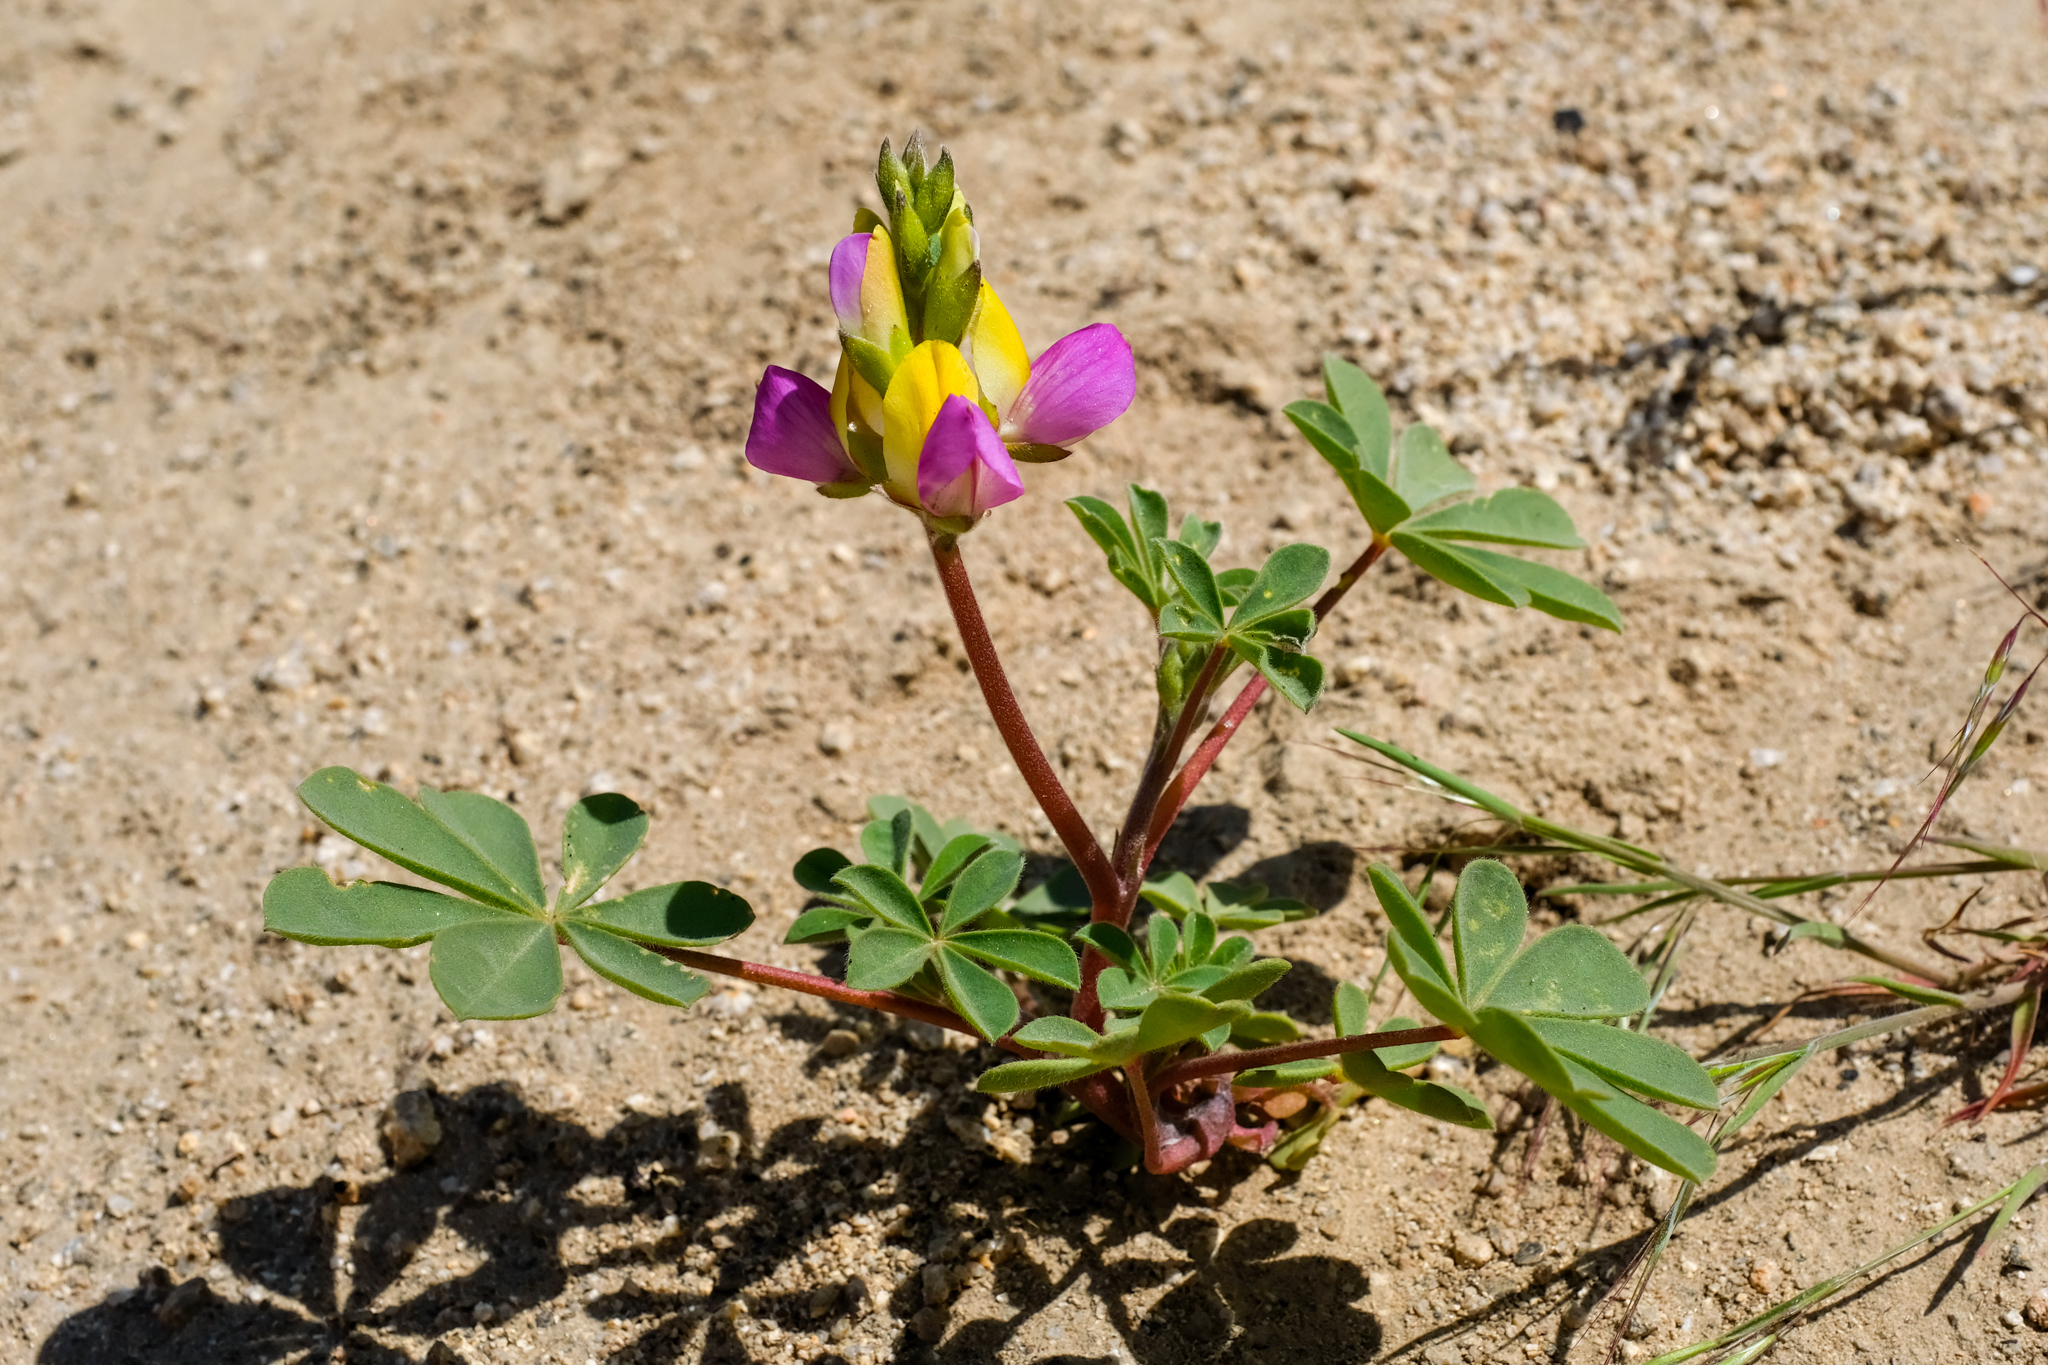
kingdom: Plantae
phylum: Tracheophyta
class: Magnoliopsida
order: Fabales
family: Fabaceae
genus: Lupinus
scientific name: Lupinus stiversii
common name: Harlequin lupine
